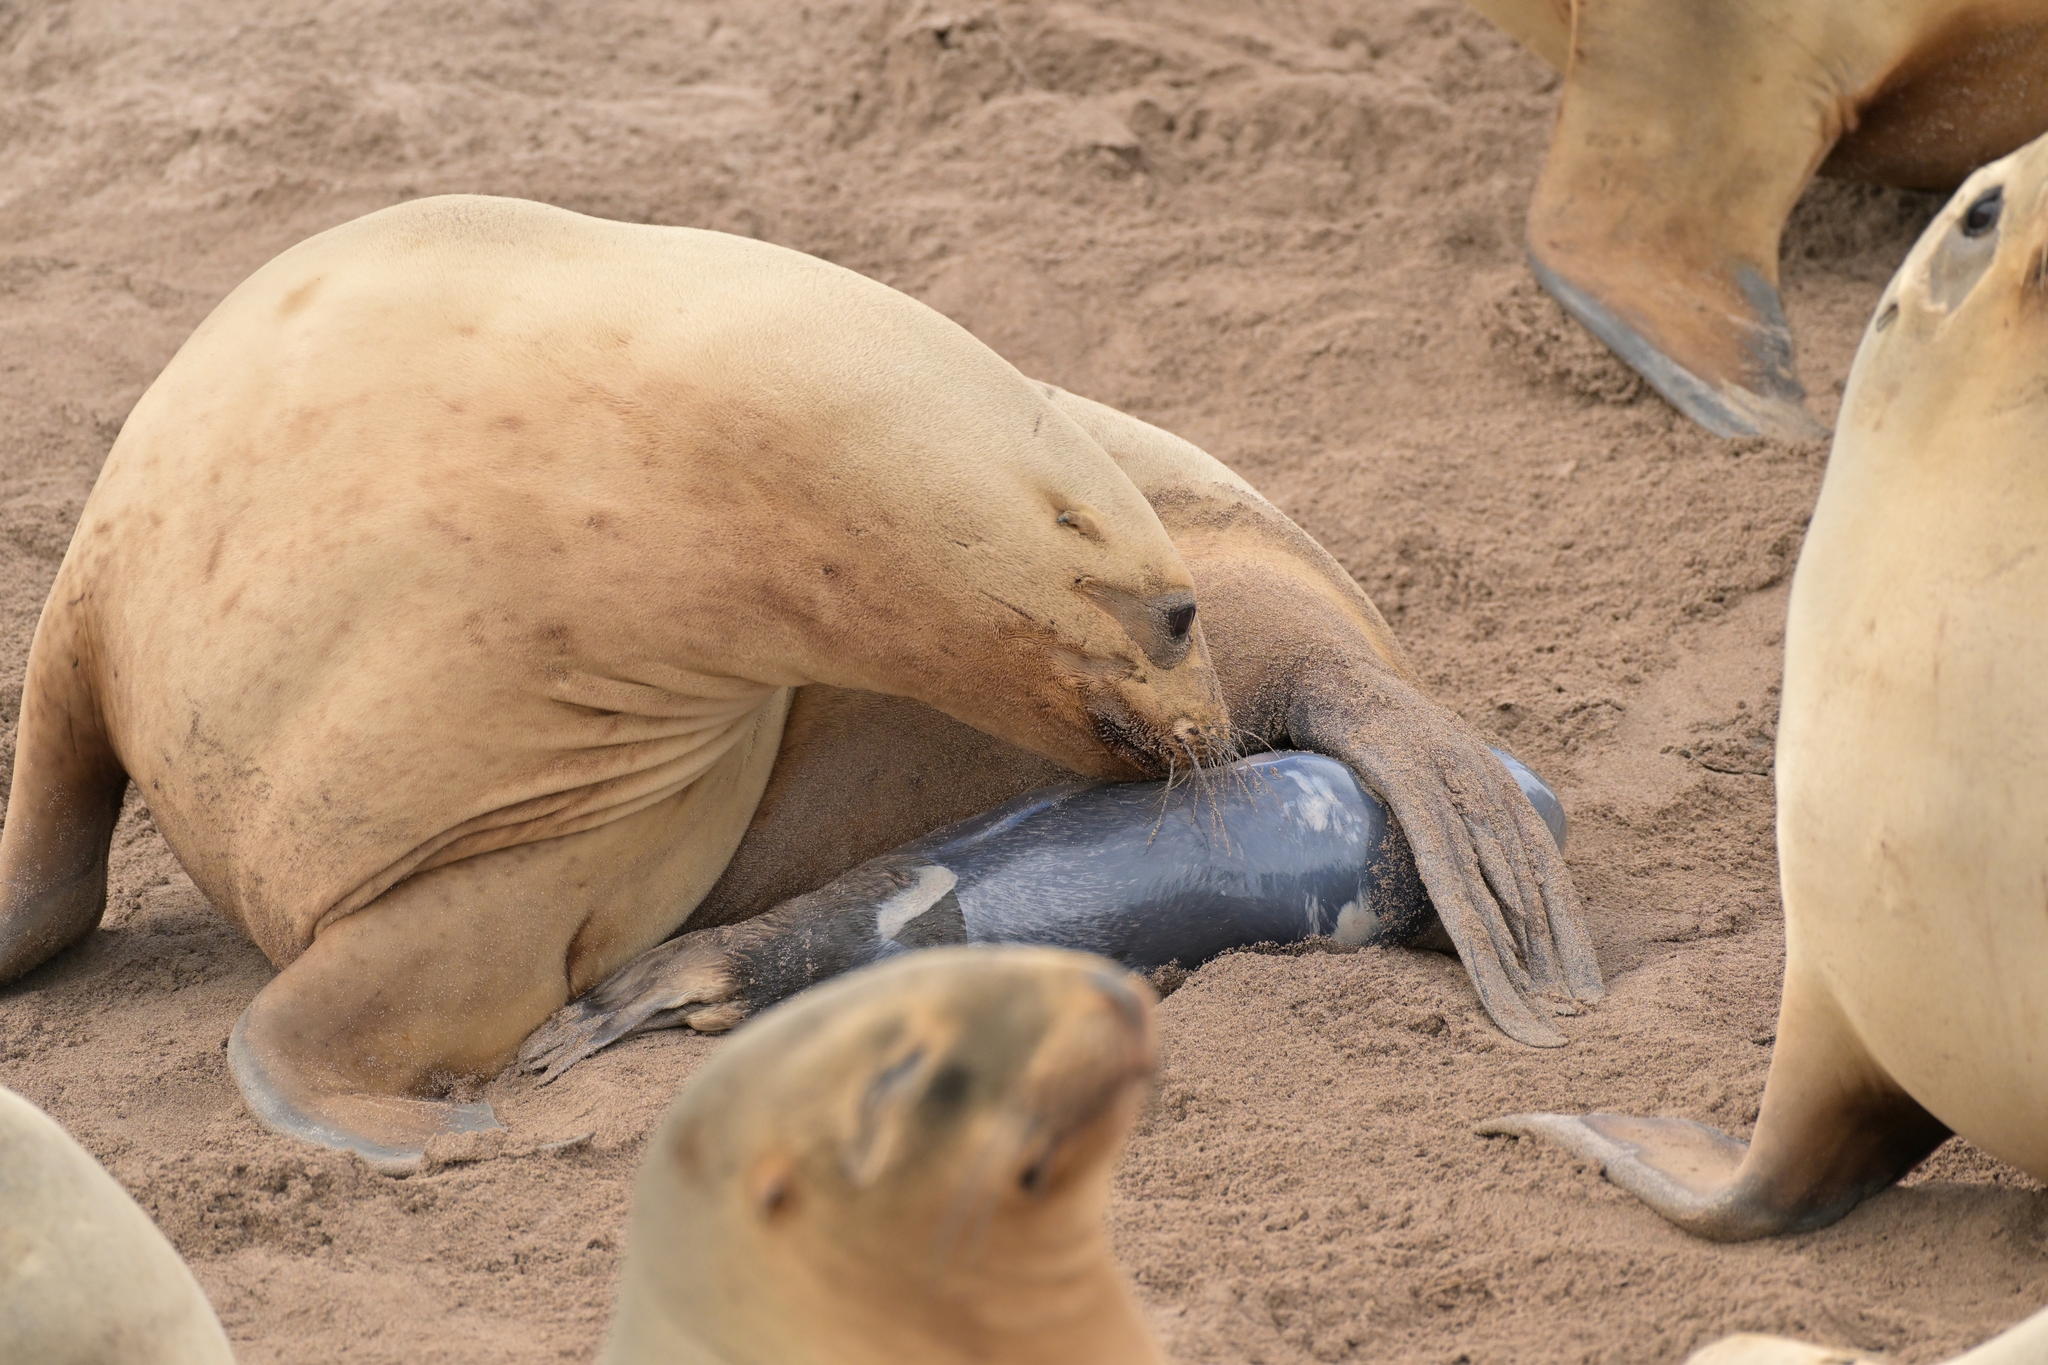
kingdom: Animalia
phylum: Chordata
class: Mammalia
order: Carnivora
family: Otariidae
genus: Phocarctos
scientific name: Phocarctos hookeri
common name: New zealand sea lion
